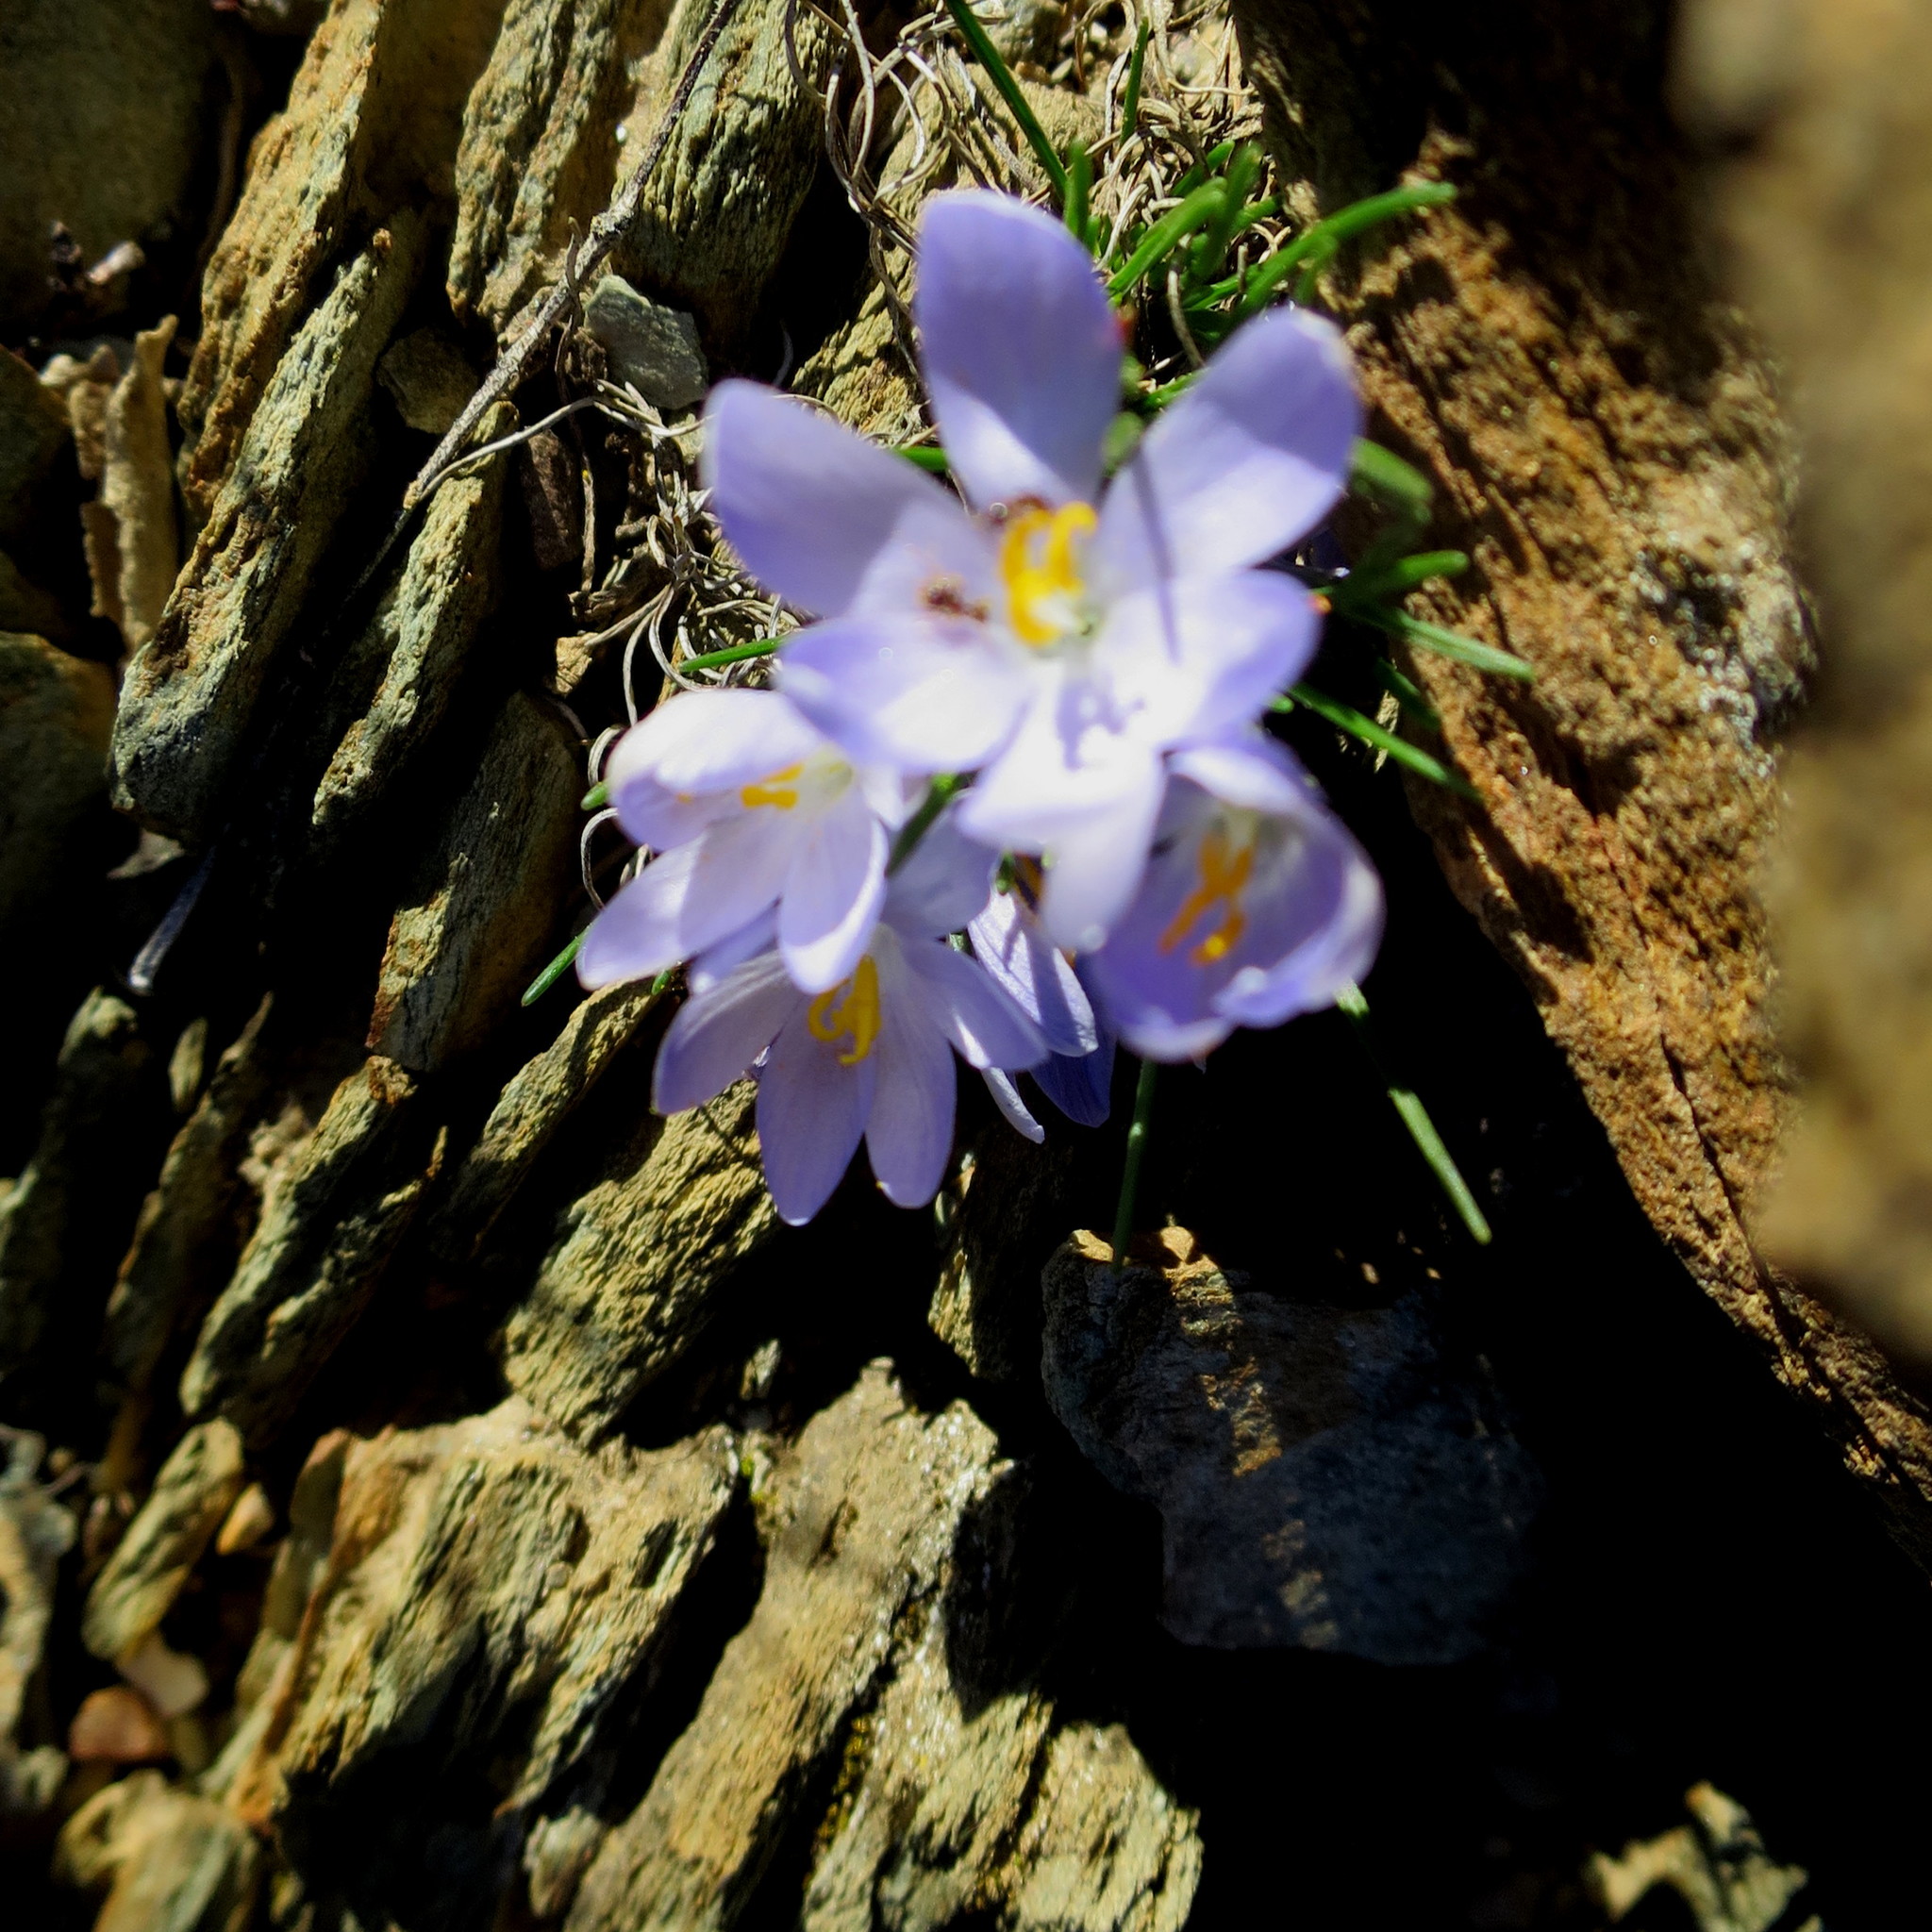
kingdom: Plantae
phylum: Tracheophyta
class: Liliopsida
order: Asparagales
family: Iridaceae
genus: Syringodea
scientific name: Syringodea longituba
